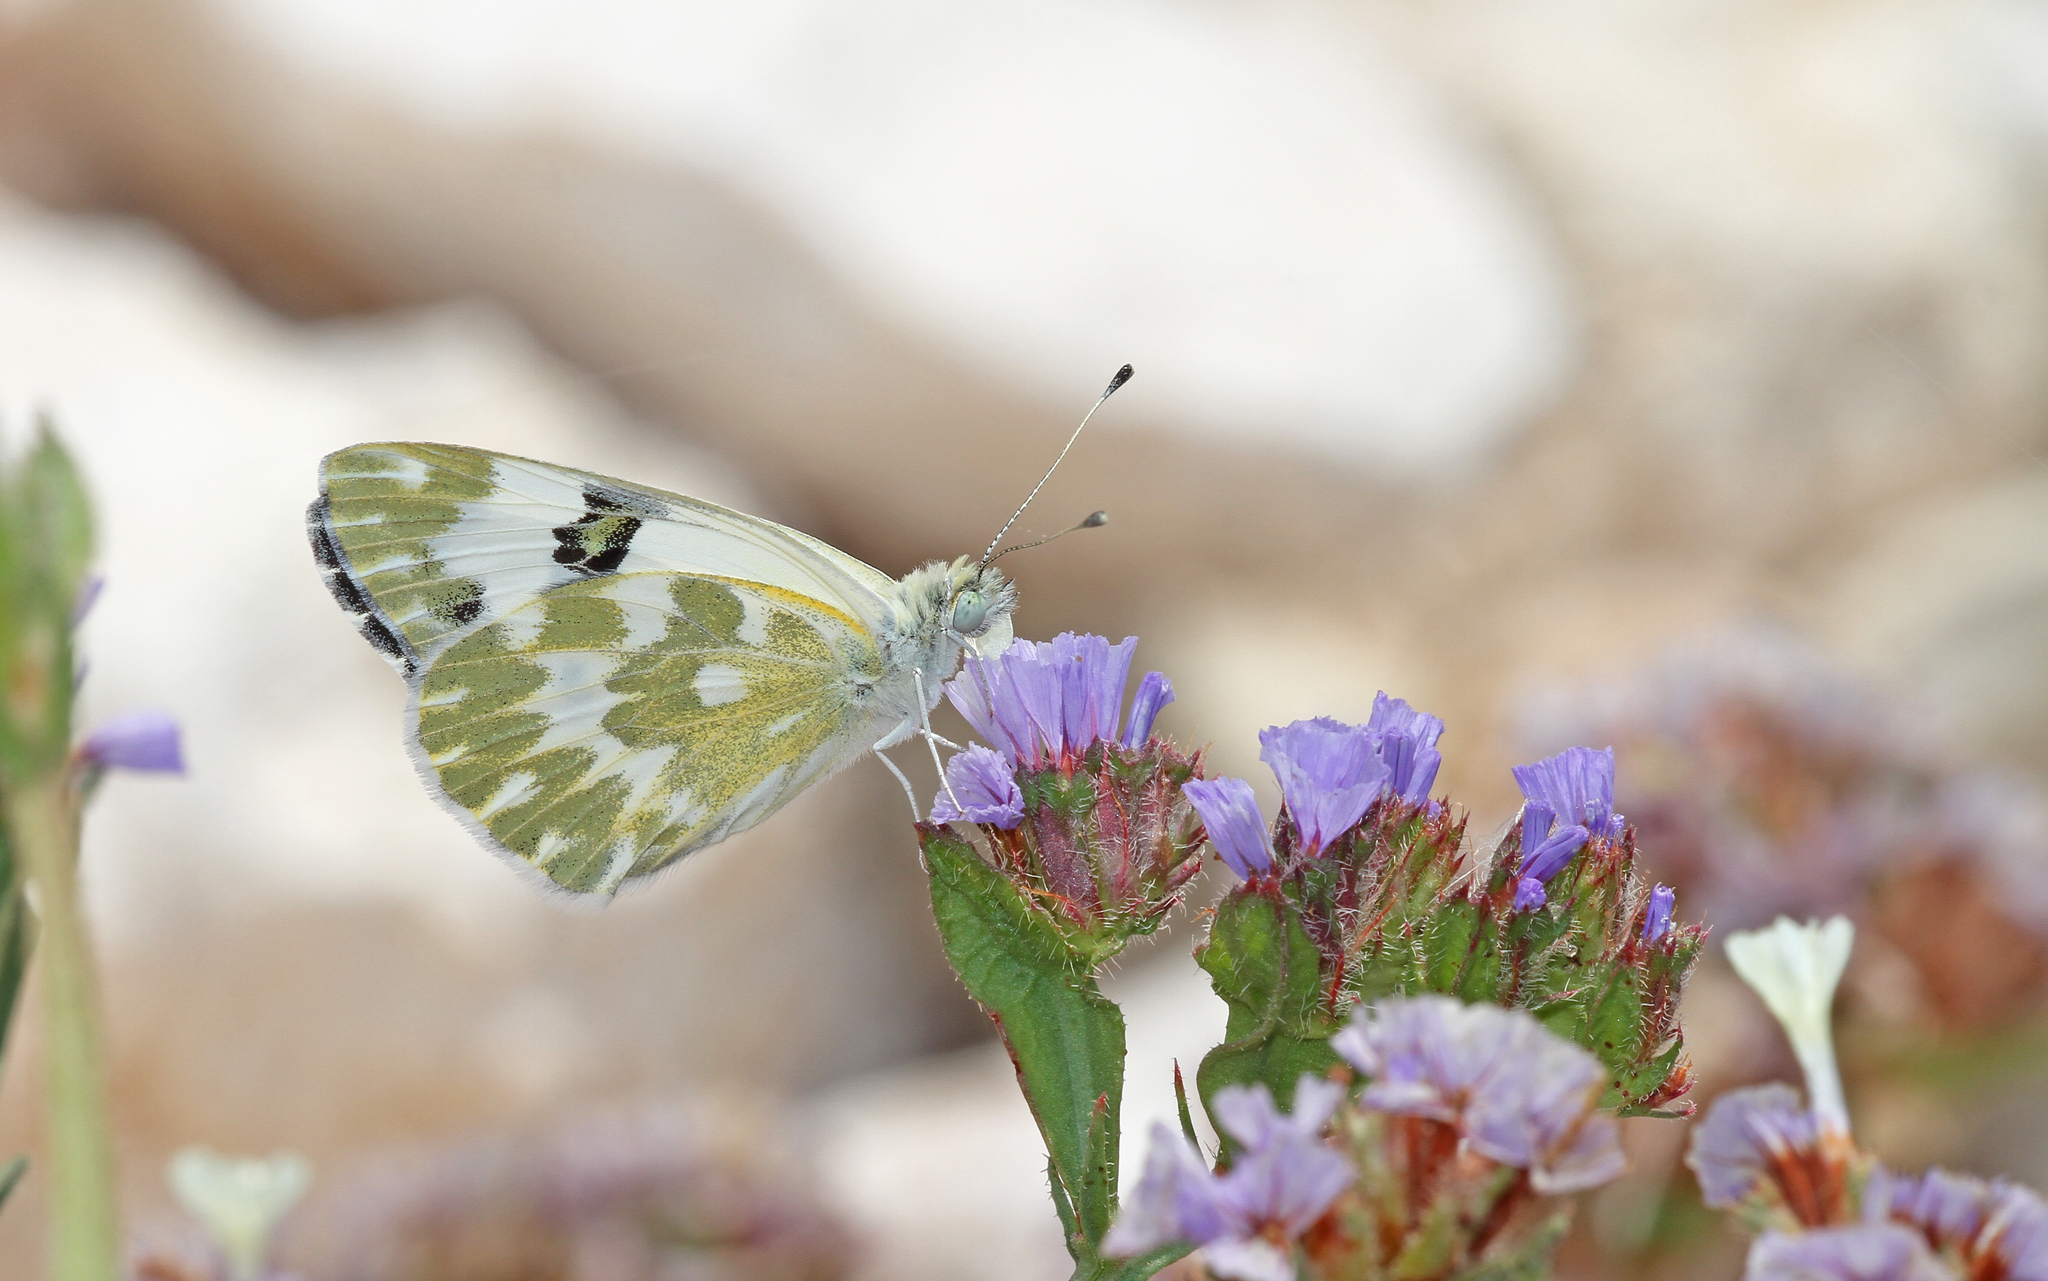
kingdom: Animalia
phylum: Arthropoda
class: Insecta
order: Lepidoptera
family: Pieridae
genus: Pontia
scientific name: Pontia daplidice
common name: Bath white
